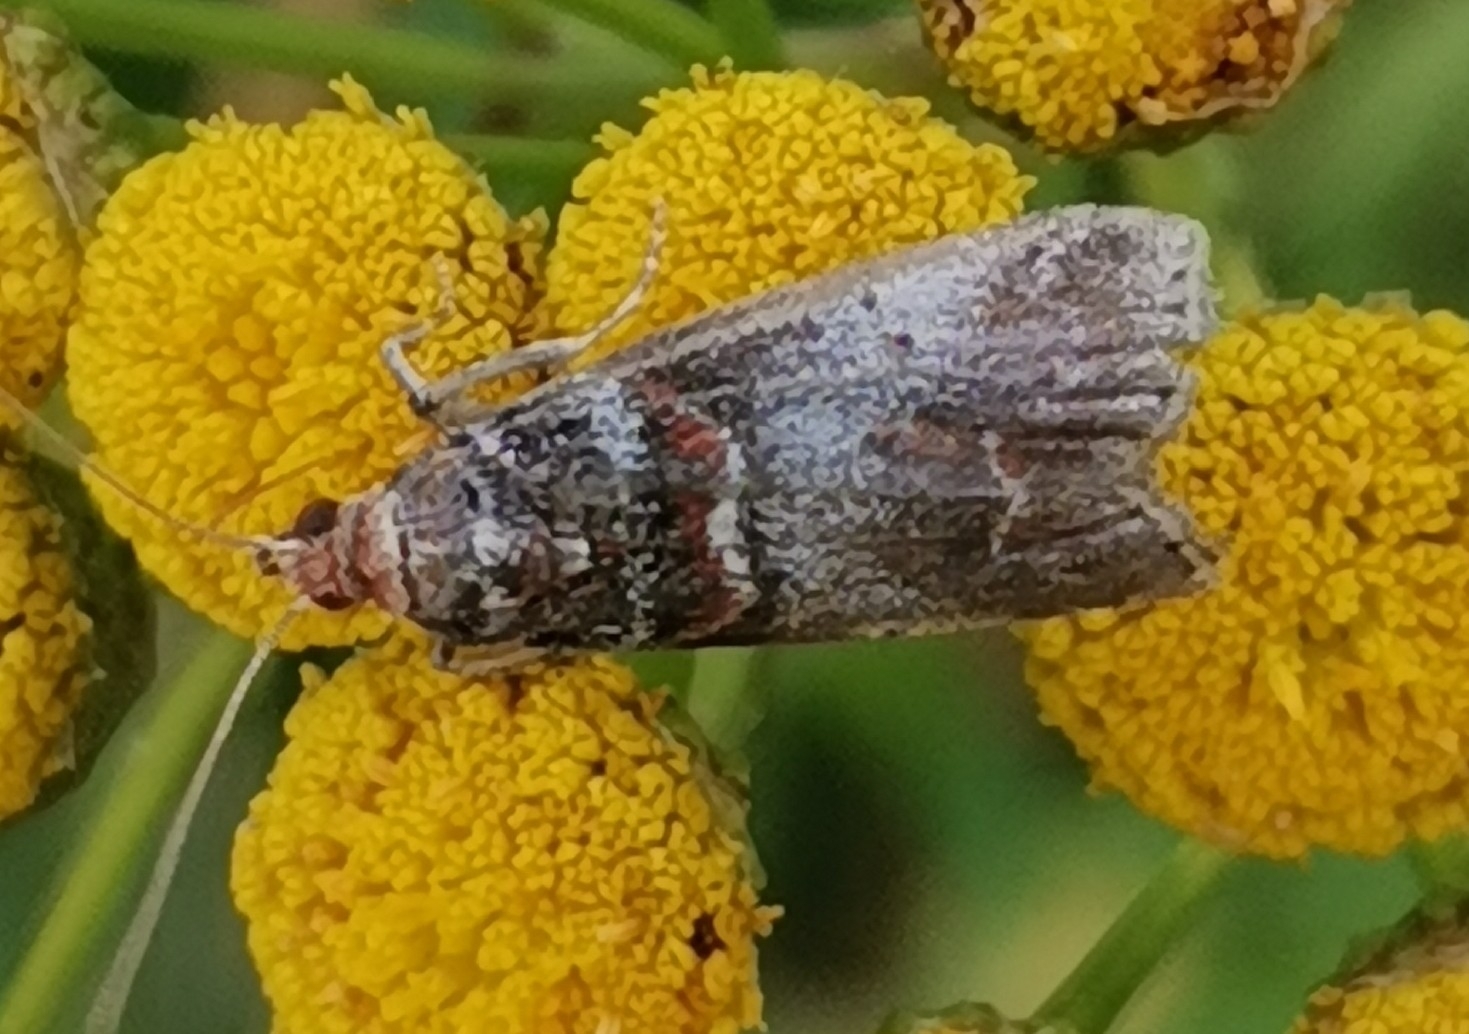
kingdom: Animalia
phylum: Arthropoda
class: Insecta
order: Lepidoptera
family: Pyralidae
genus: Acrobasis
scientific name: Acrobasis advenella
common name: Grey knot-horn
